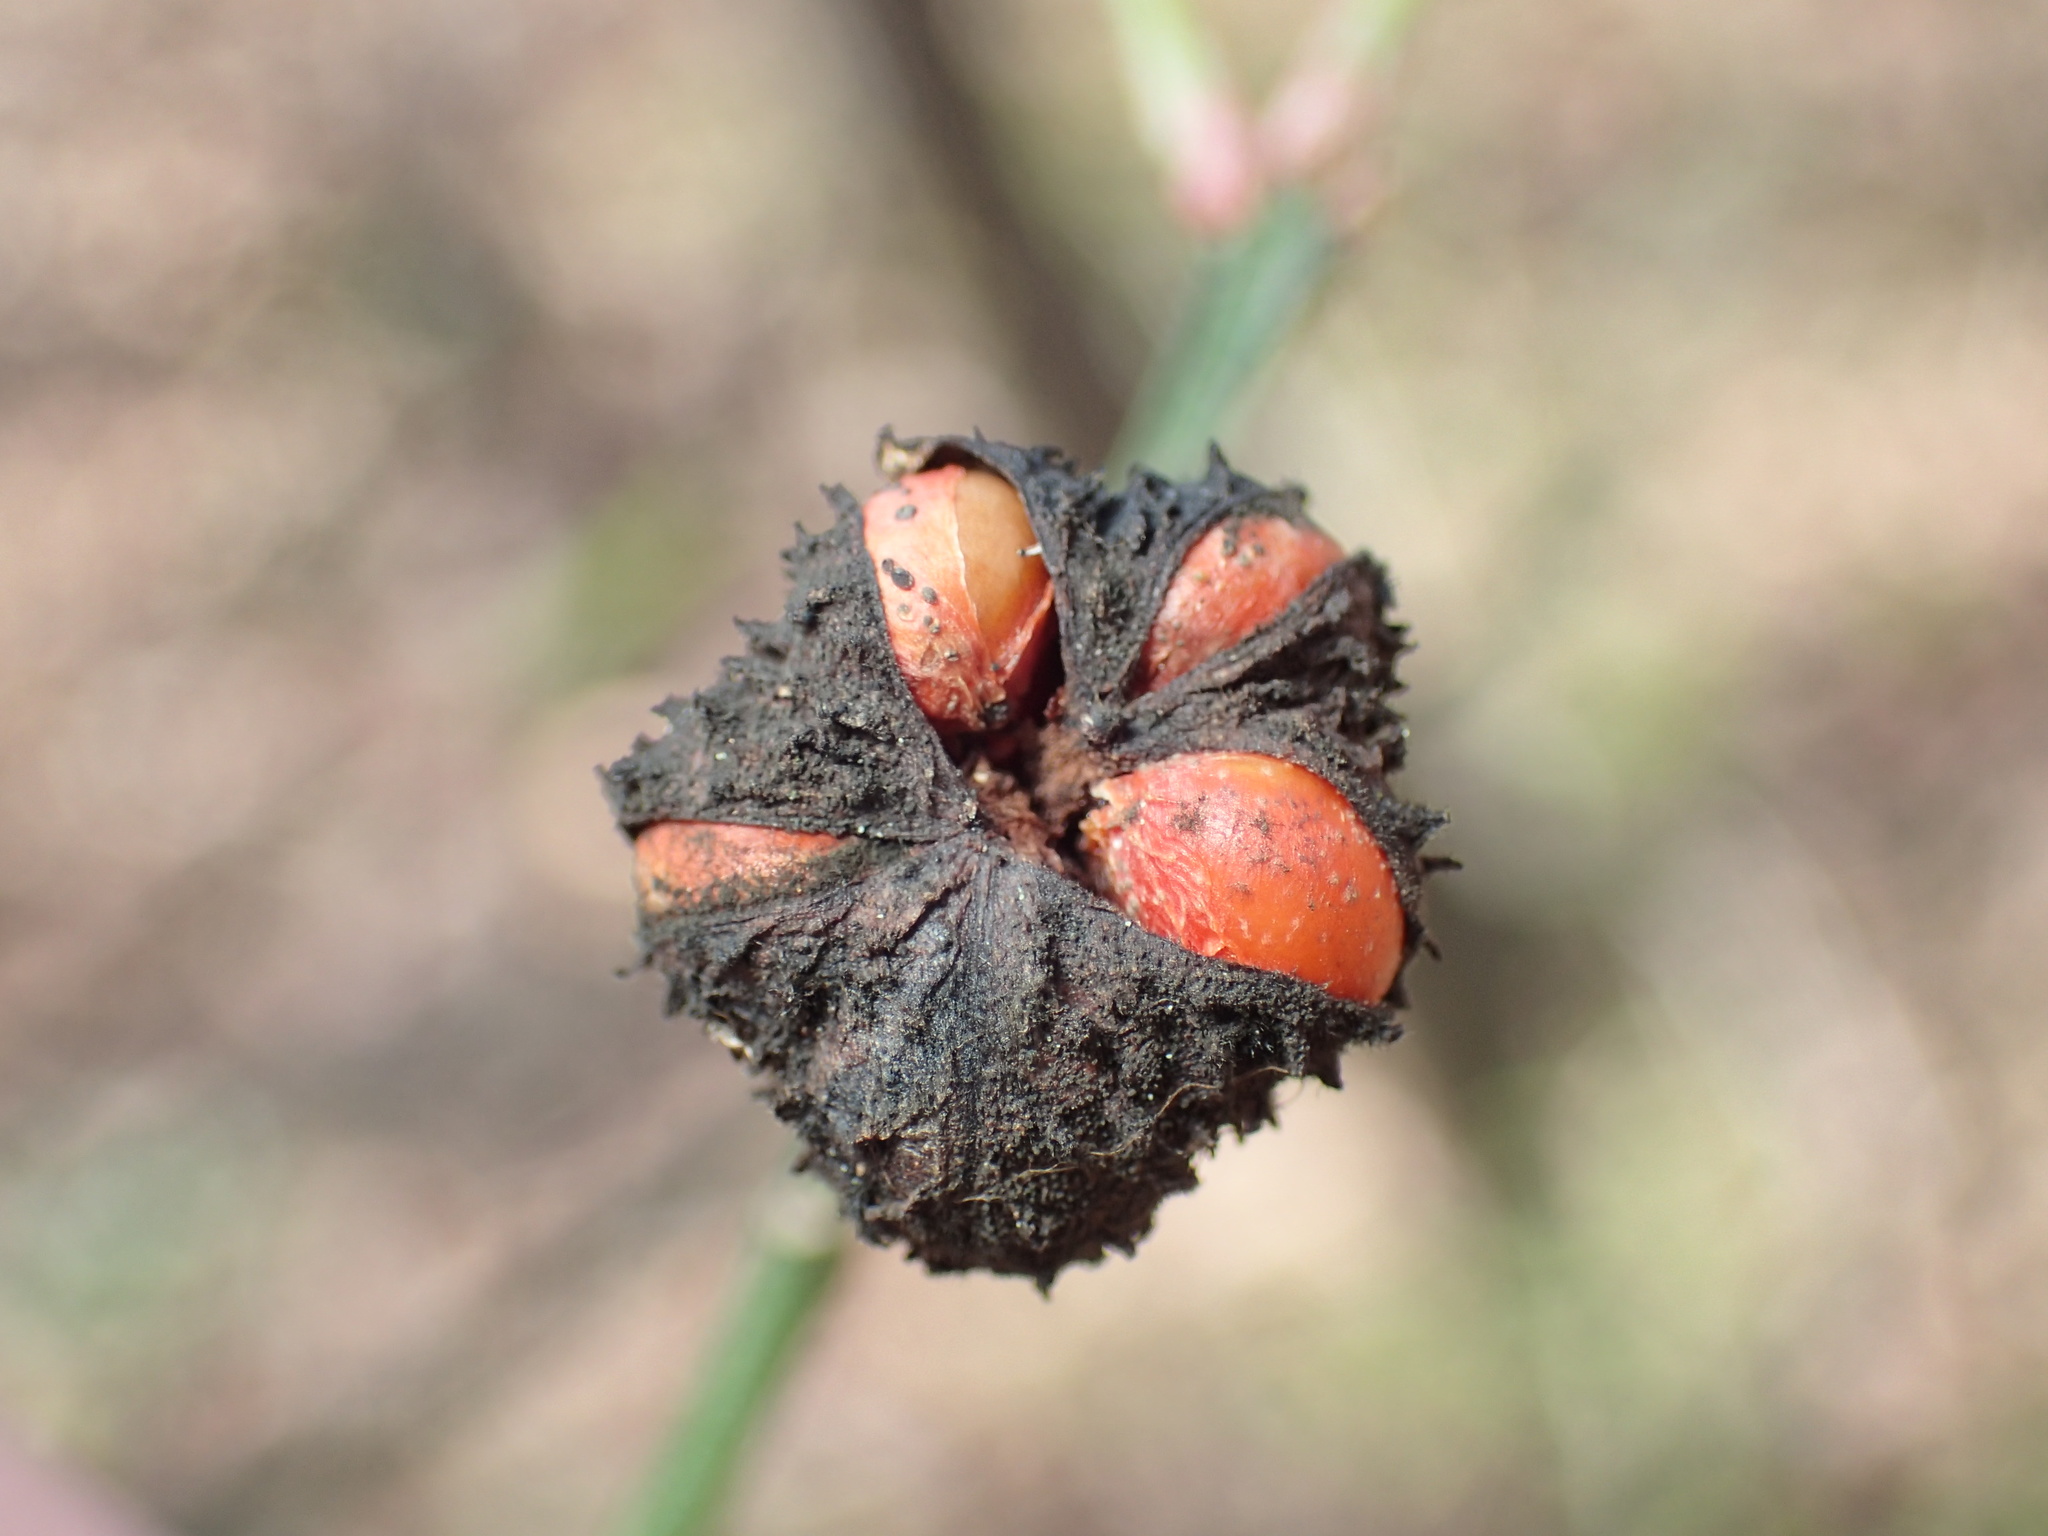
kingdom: Plantae
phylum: Tracheophyta
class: Magnoliopsida
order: Celastrales
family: Celastraceae
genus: Euonymus
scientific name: Euonymus americanus
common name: Bursting-heart
